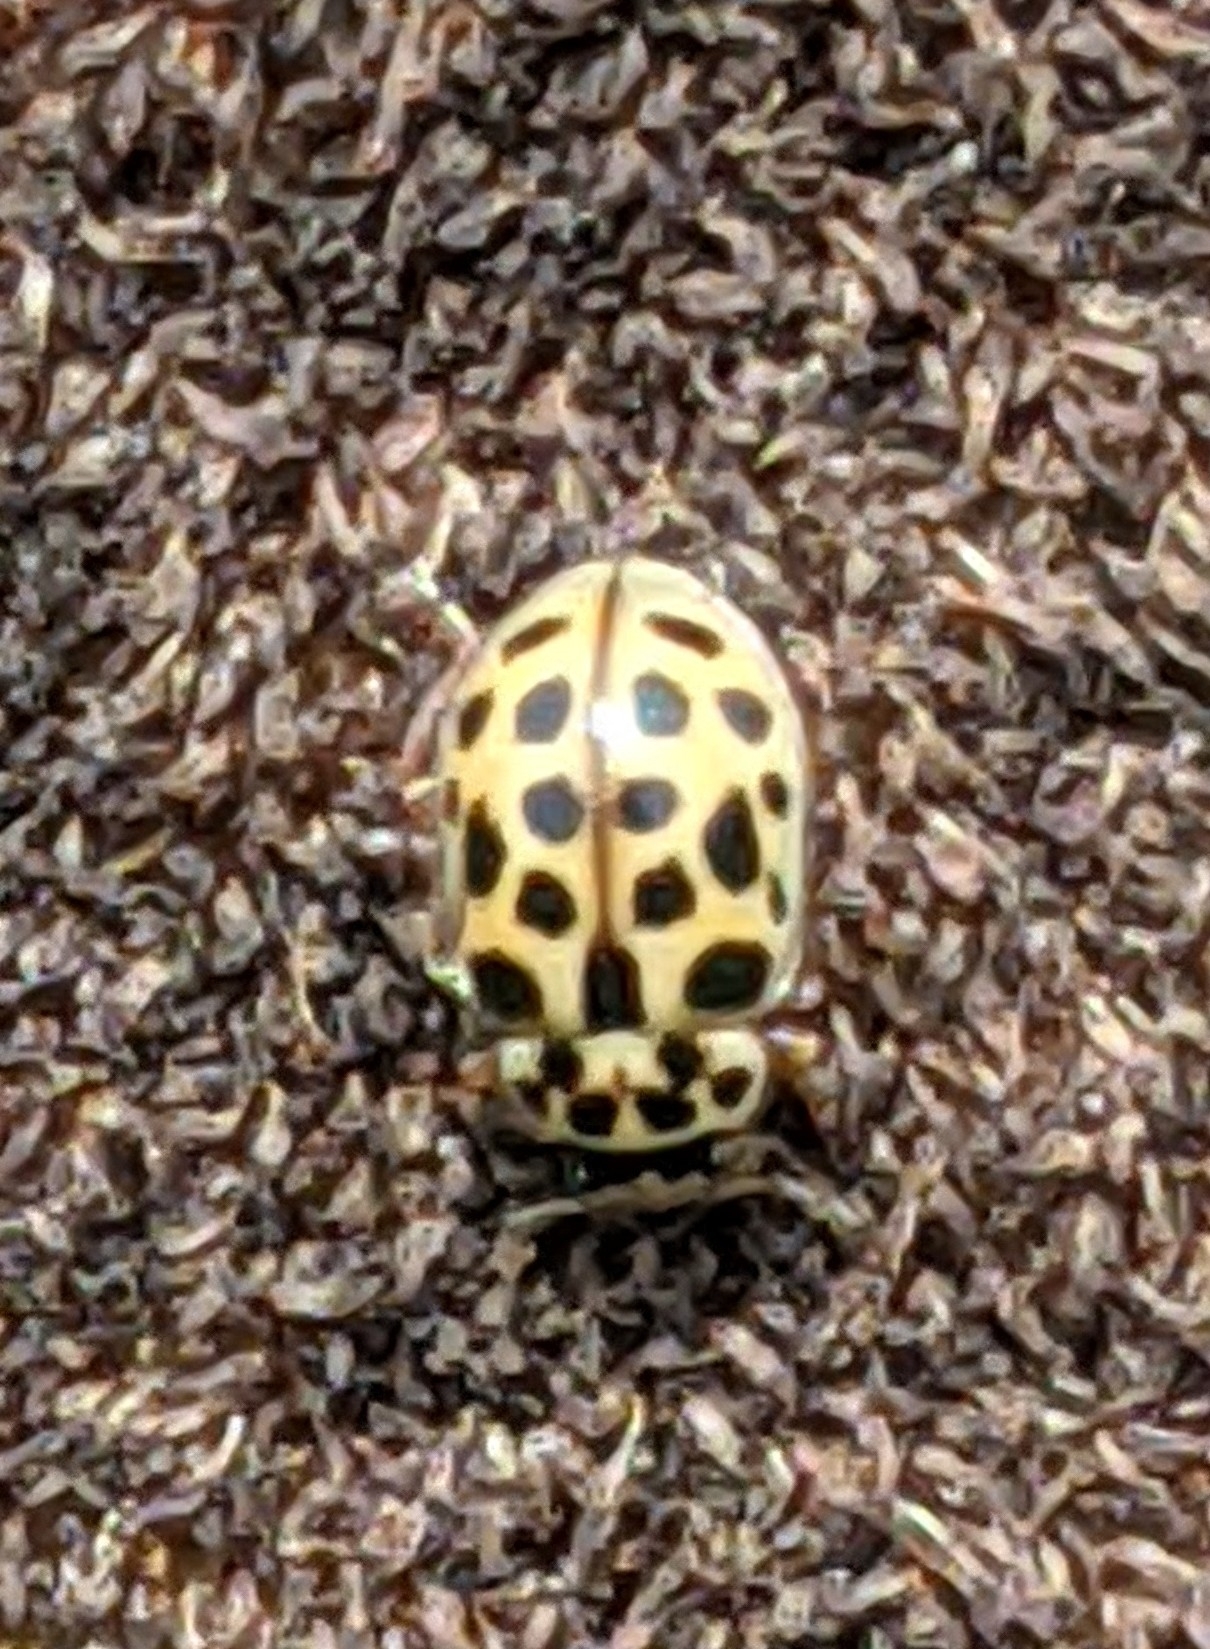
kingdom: Animalia
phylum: Arthropoda
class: Insecta
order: Coleoptera
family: Coccinellidae
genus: Anisosticta
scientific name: Anisosticta novemdecimpunctata
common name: Water ladybird
